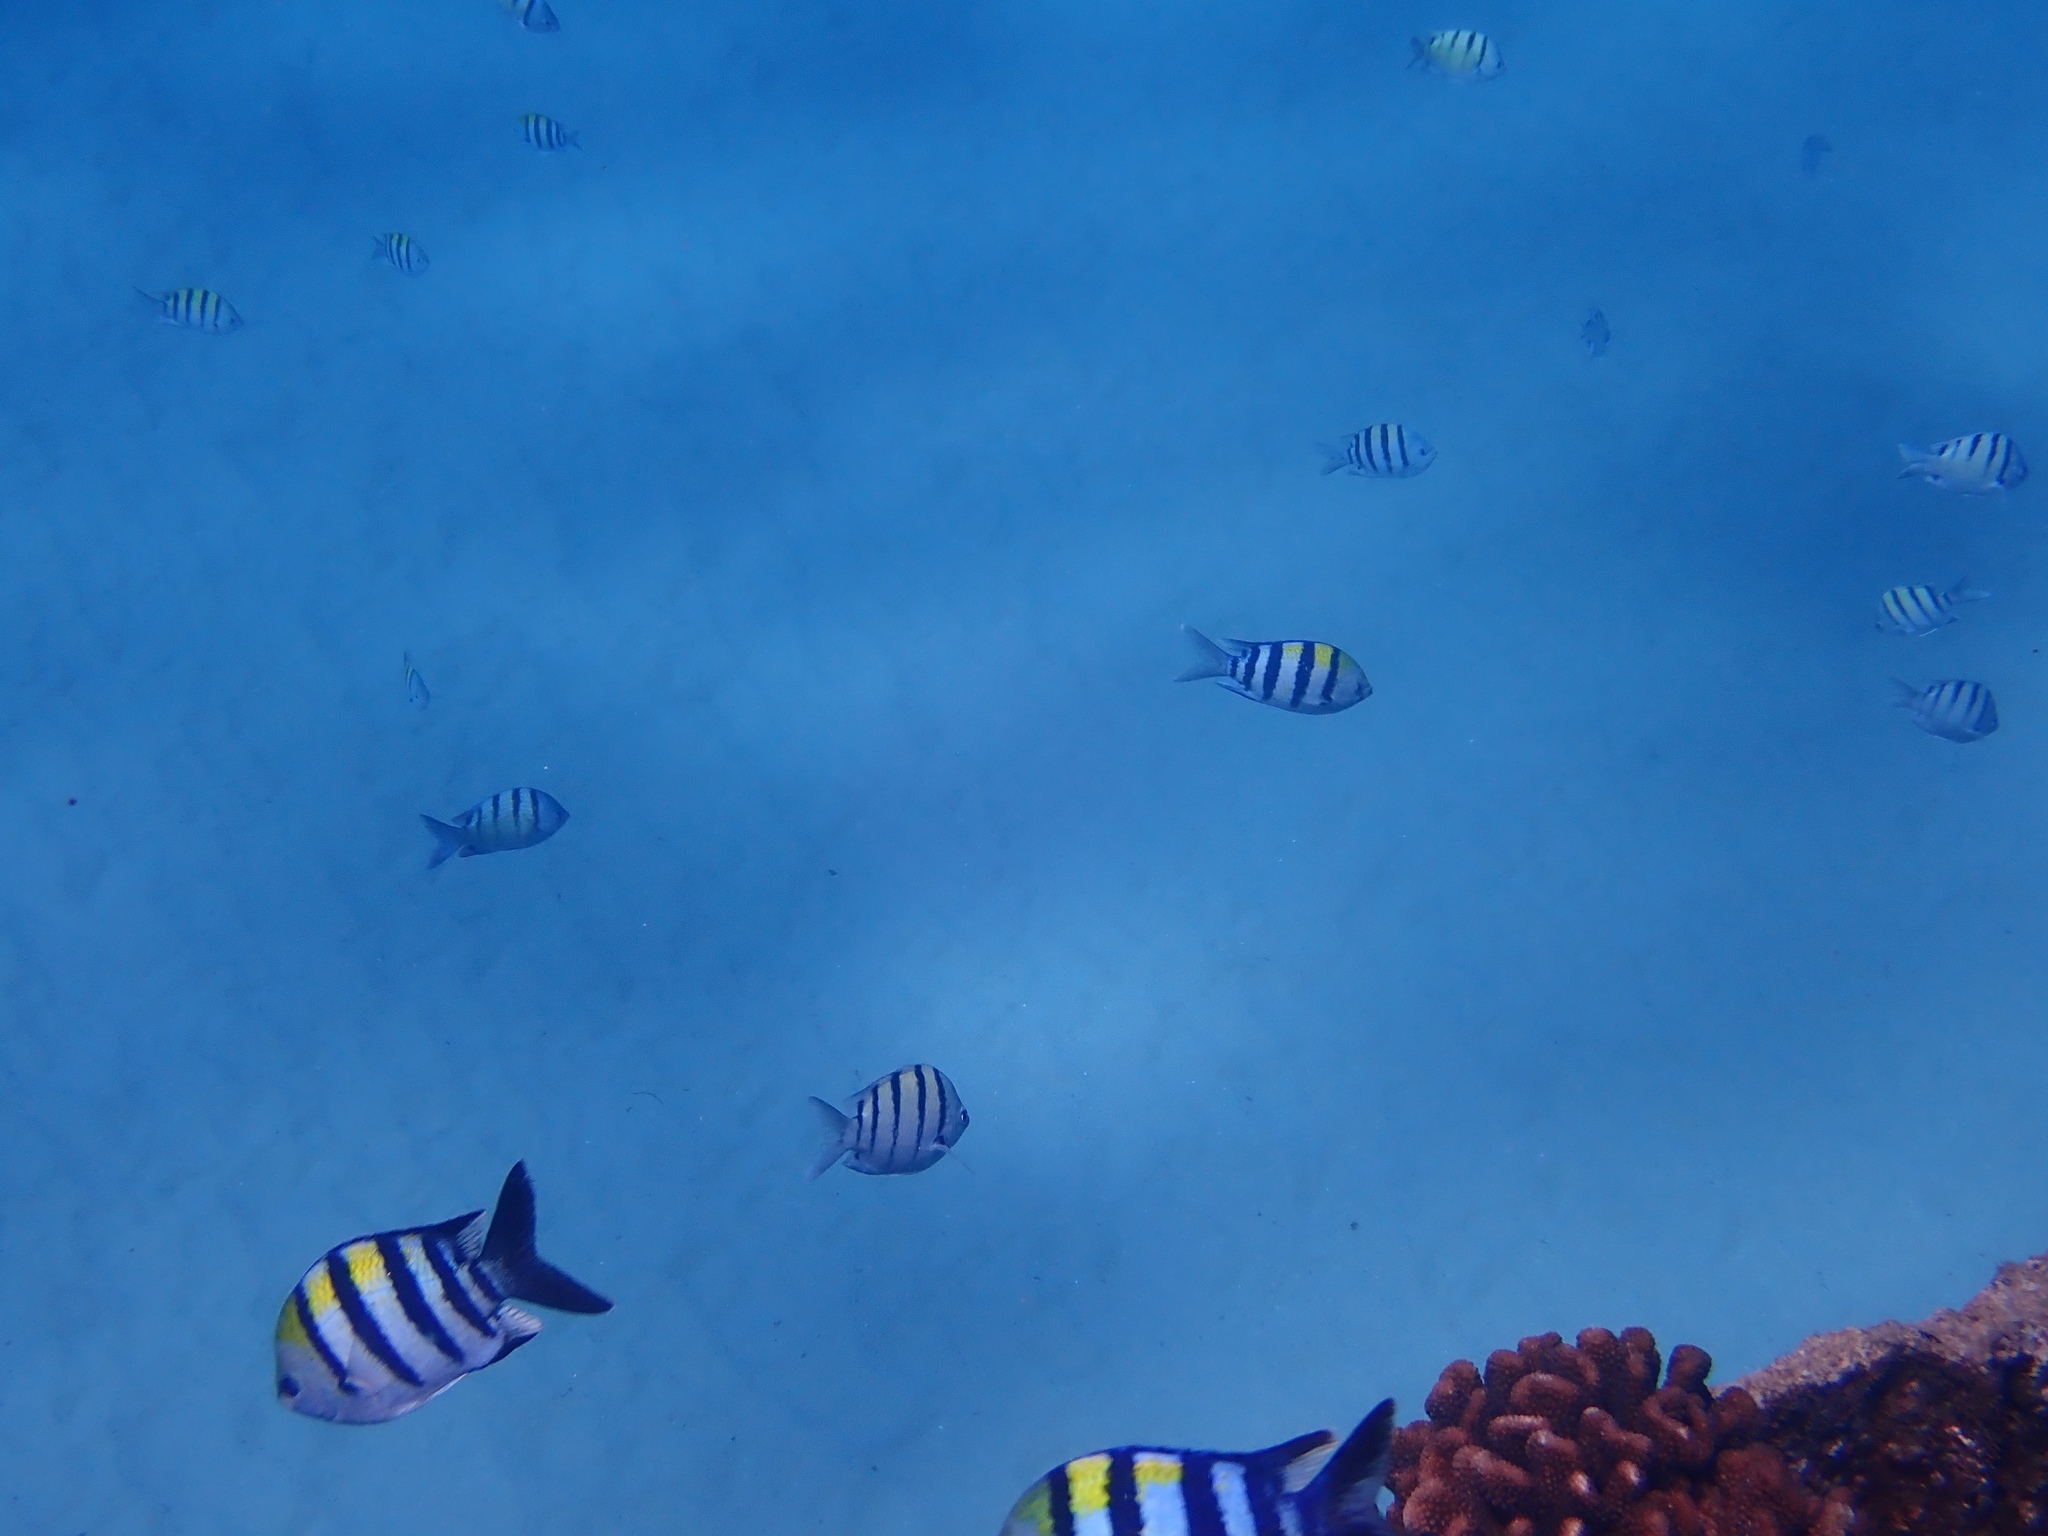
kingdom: Animalia
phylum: Chordata
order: Perciformes
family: Pomacentridae
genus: Abudefduf
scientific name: Abudefduf vaigiensis
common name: Indo-pacific sergeant
